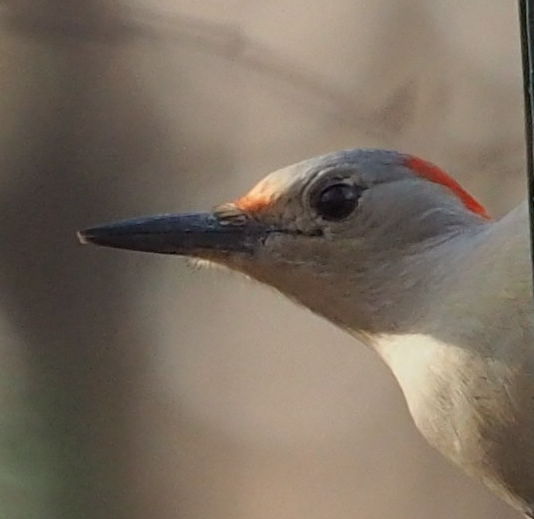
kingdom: Animalia
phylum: Chordata
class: Aves
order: Piciformes
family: Picidae
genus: Melanerpes
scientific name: Melanerpes carolinus
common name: Red-bellied woodpecker
